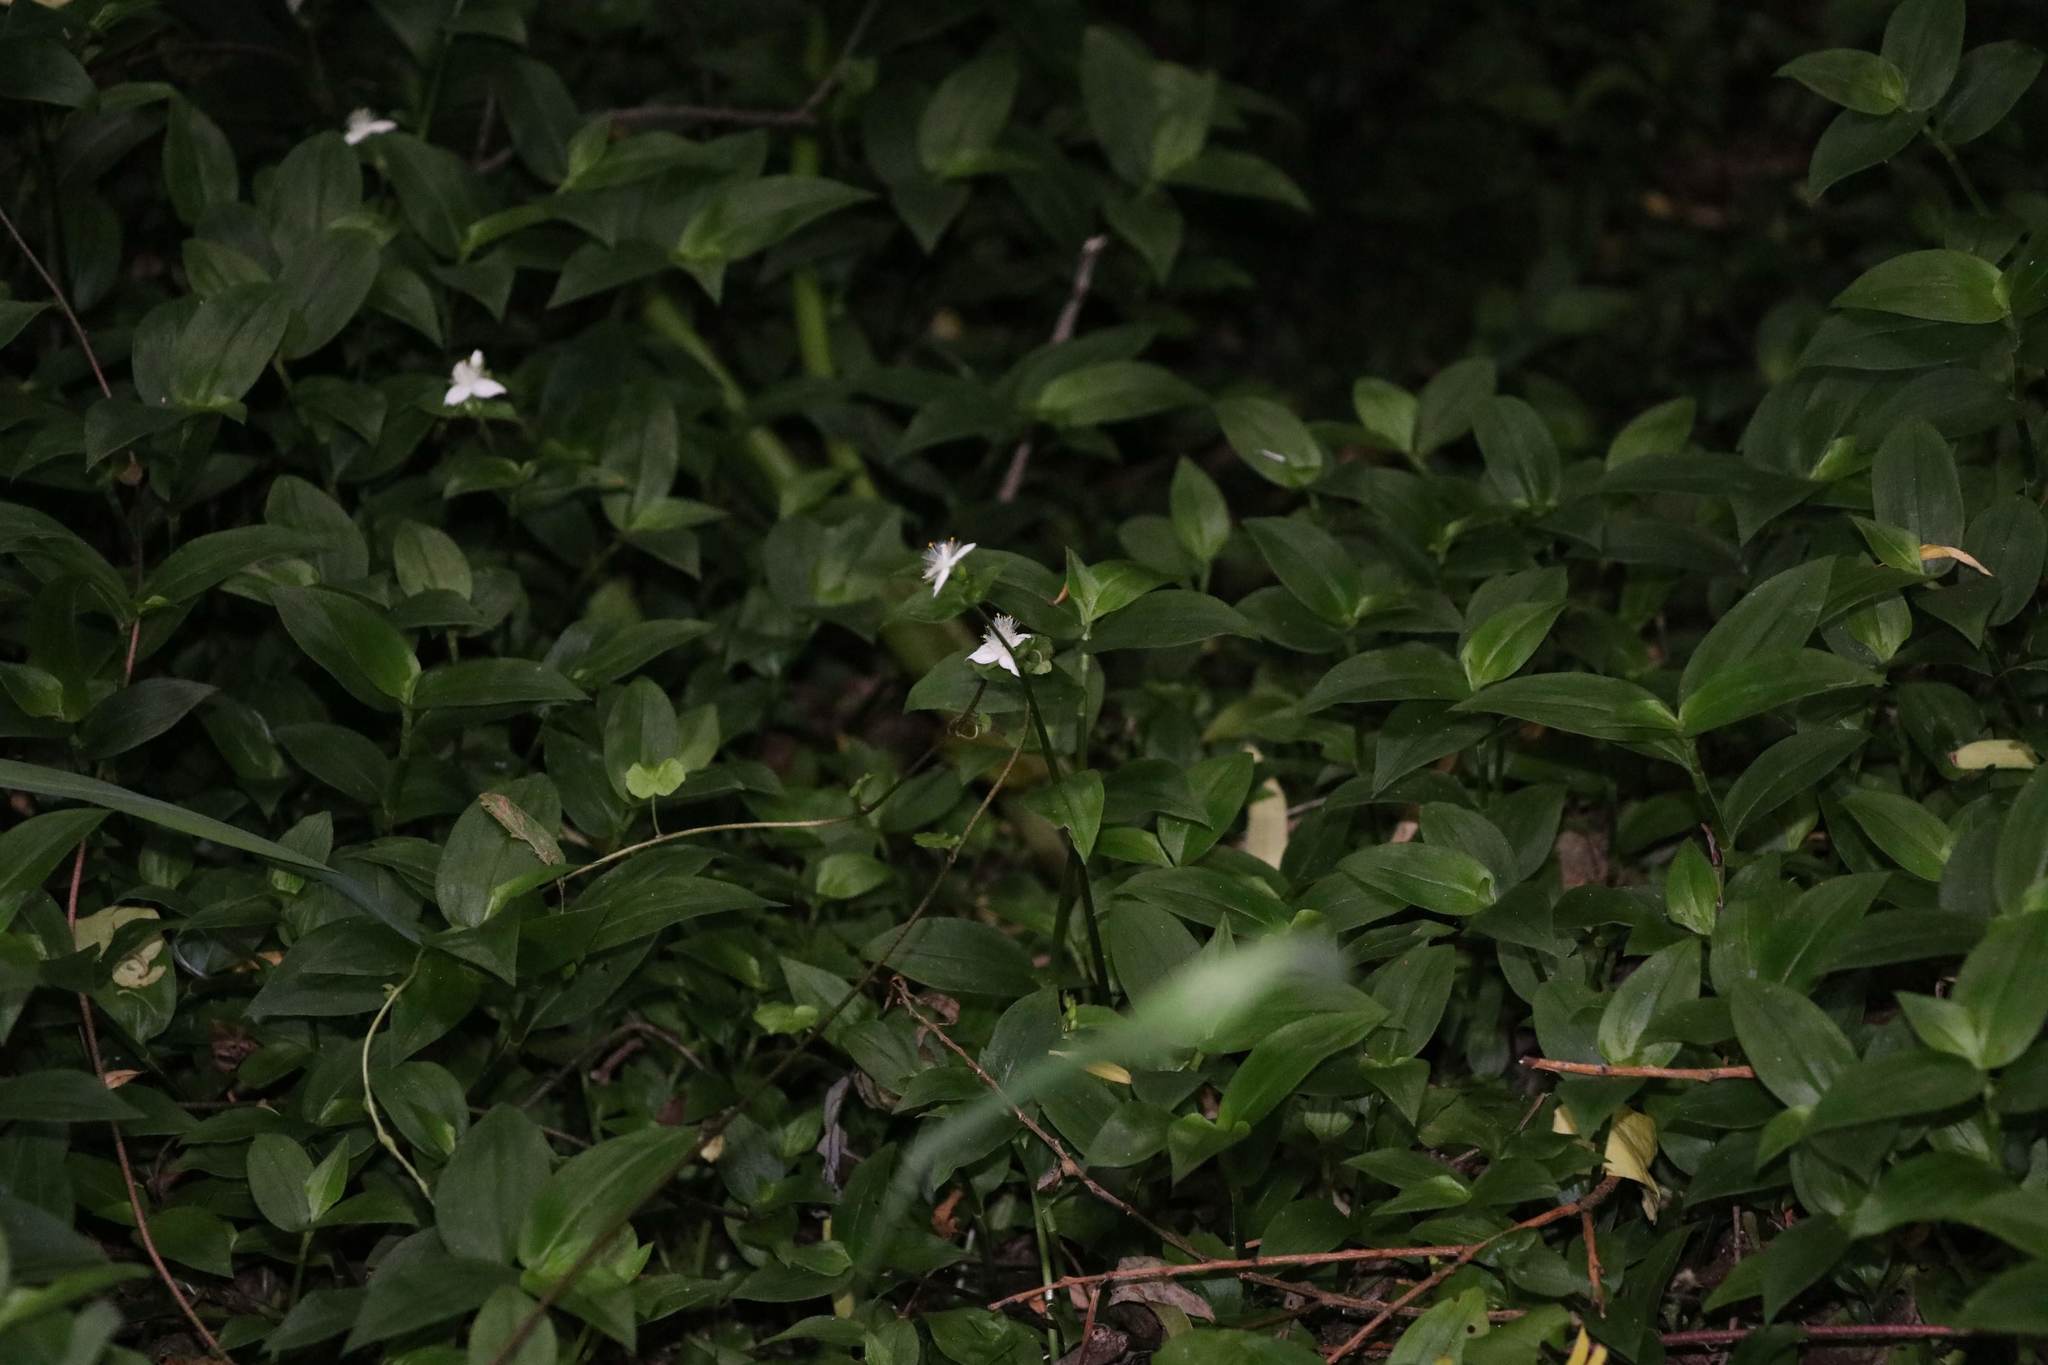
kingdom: Plantae
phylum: Tracheophyta
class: Liliopsida
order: Commelinales
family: Commelinaceae
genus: Tradescantia
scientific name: Tradescantia fluminensis
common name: Wandering-jew
